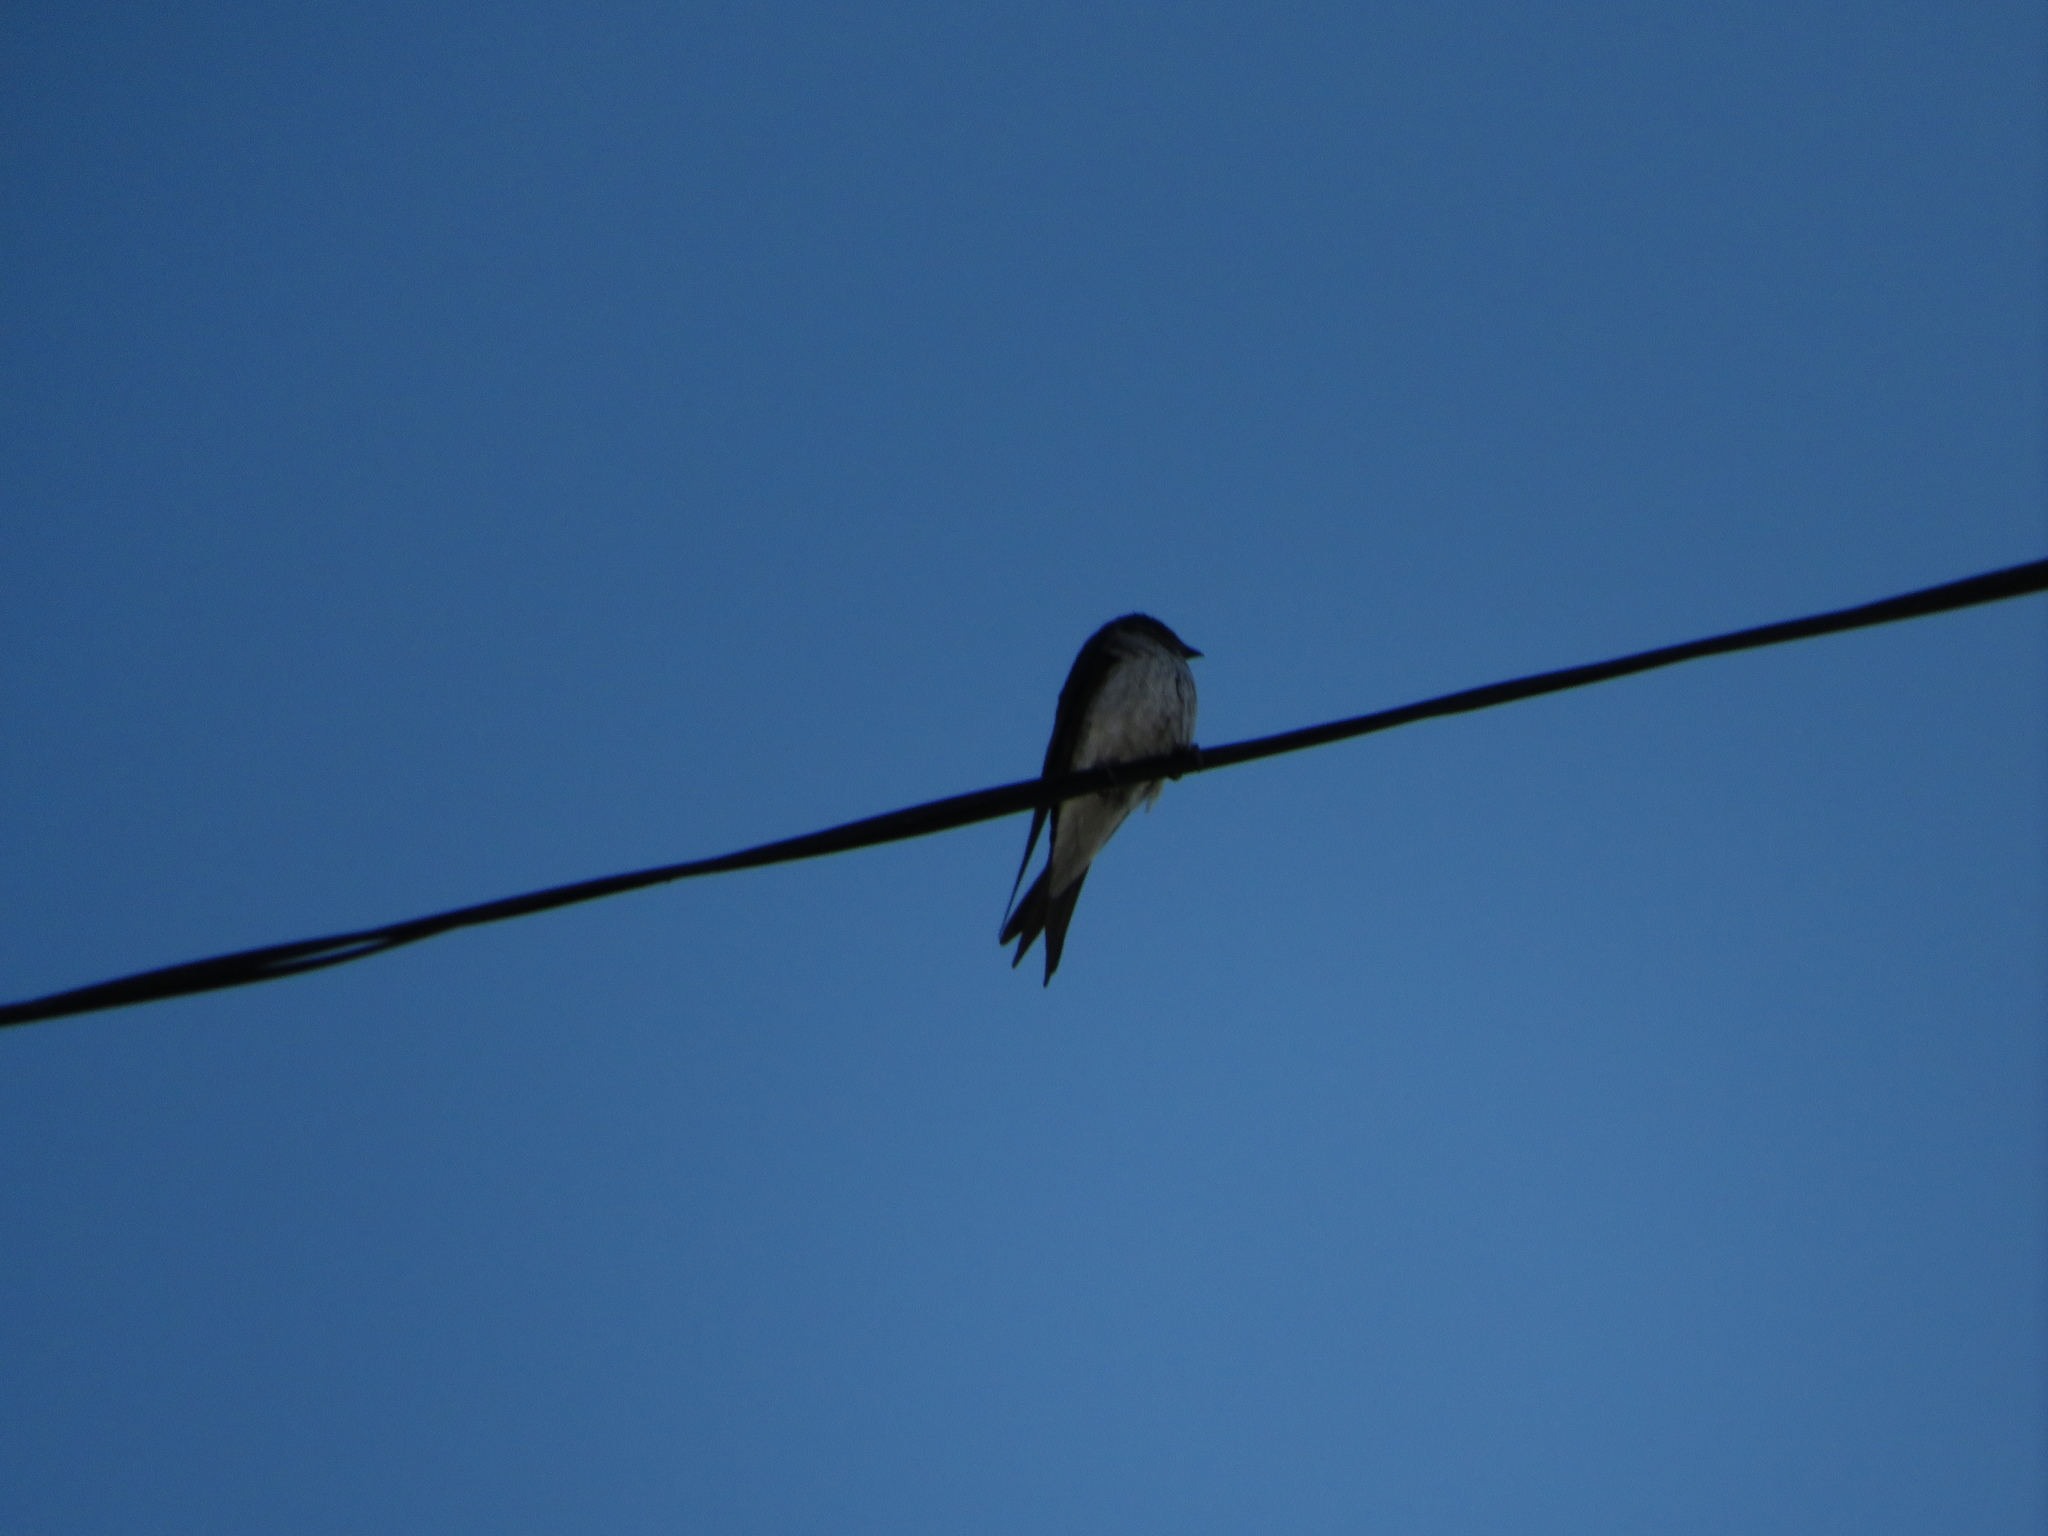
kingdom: Animalia
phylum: Chordata
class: Aves
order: Passeriformes
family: Hirundinidae
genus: Progne
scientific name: Progne chalybea
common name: Grey-breasted martin
